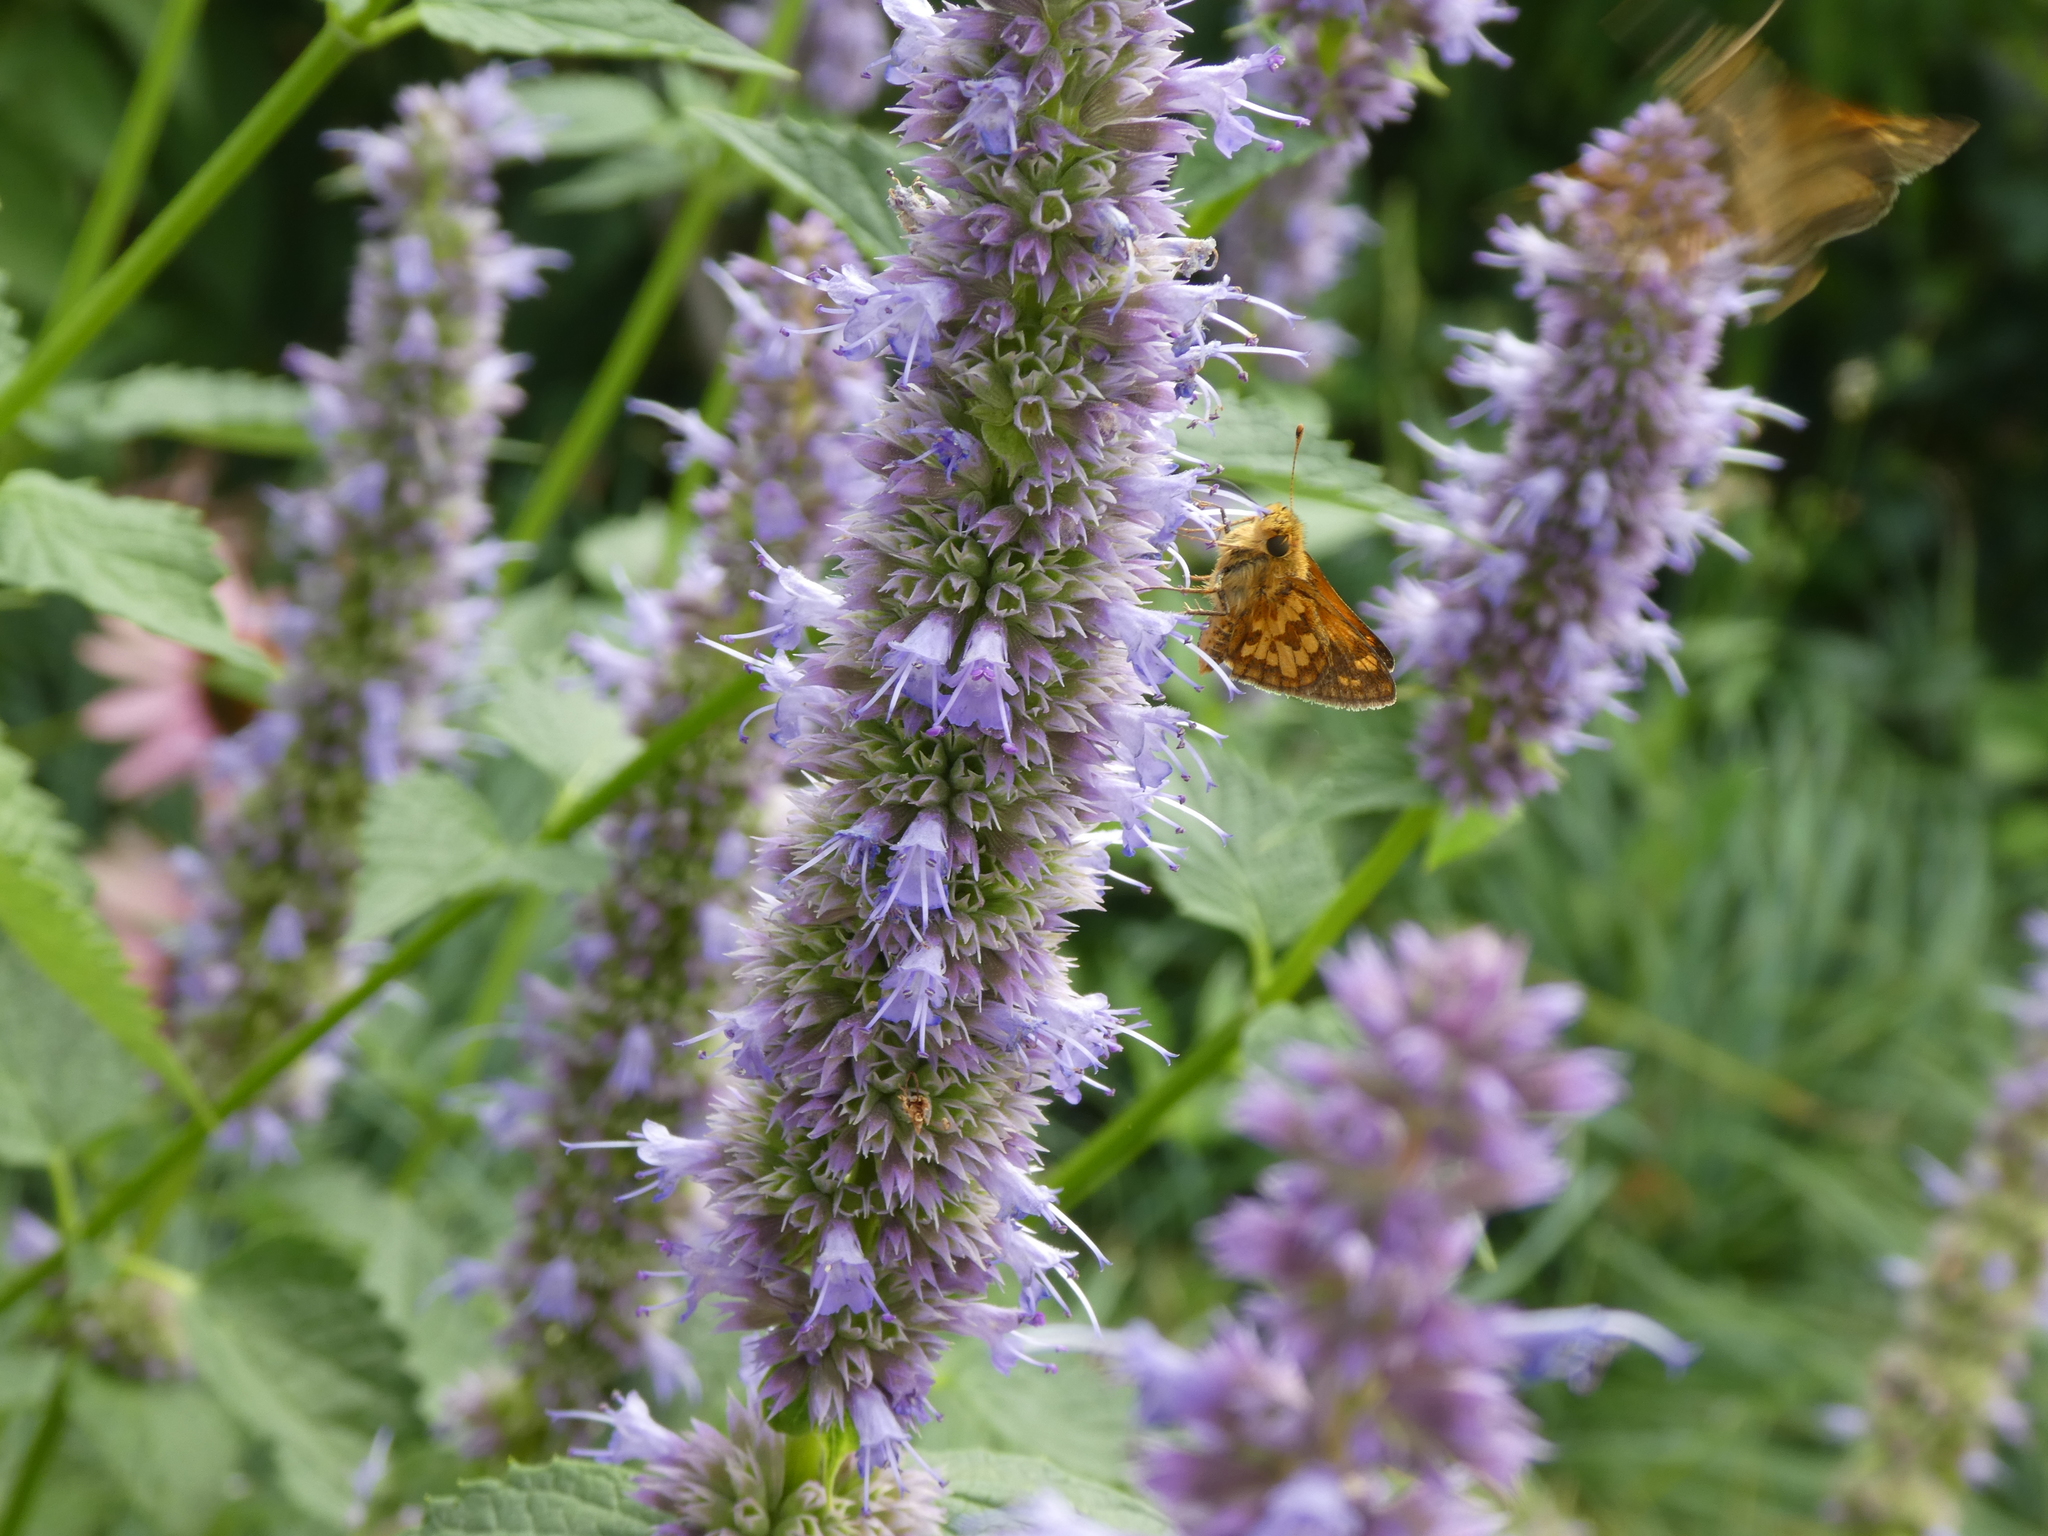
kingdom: Animalia
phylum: Arthropoda
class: Insecta
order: Lepidoptera
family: Hesperiidae
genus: Polites
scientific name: Polites coras
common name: Peck's skipper
